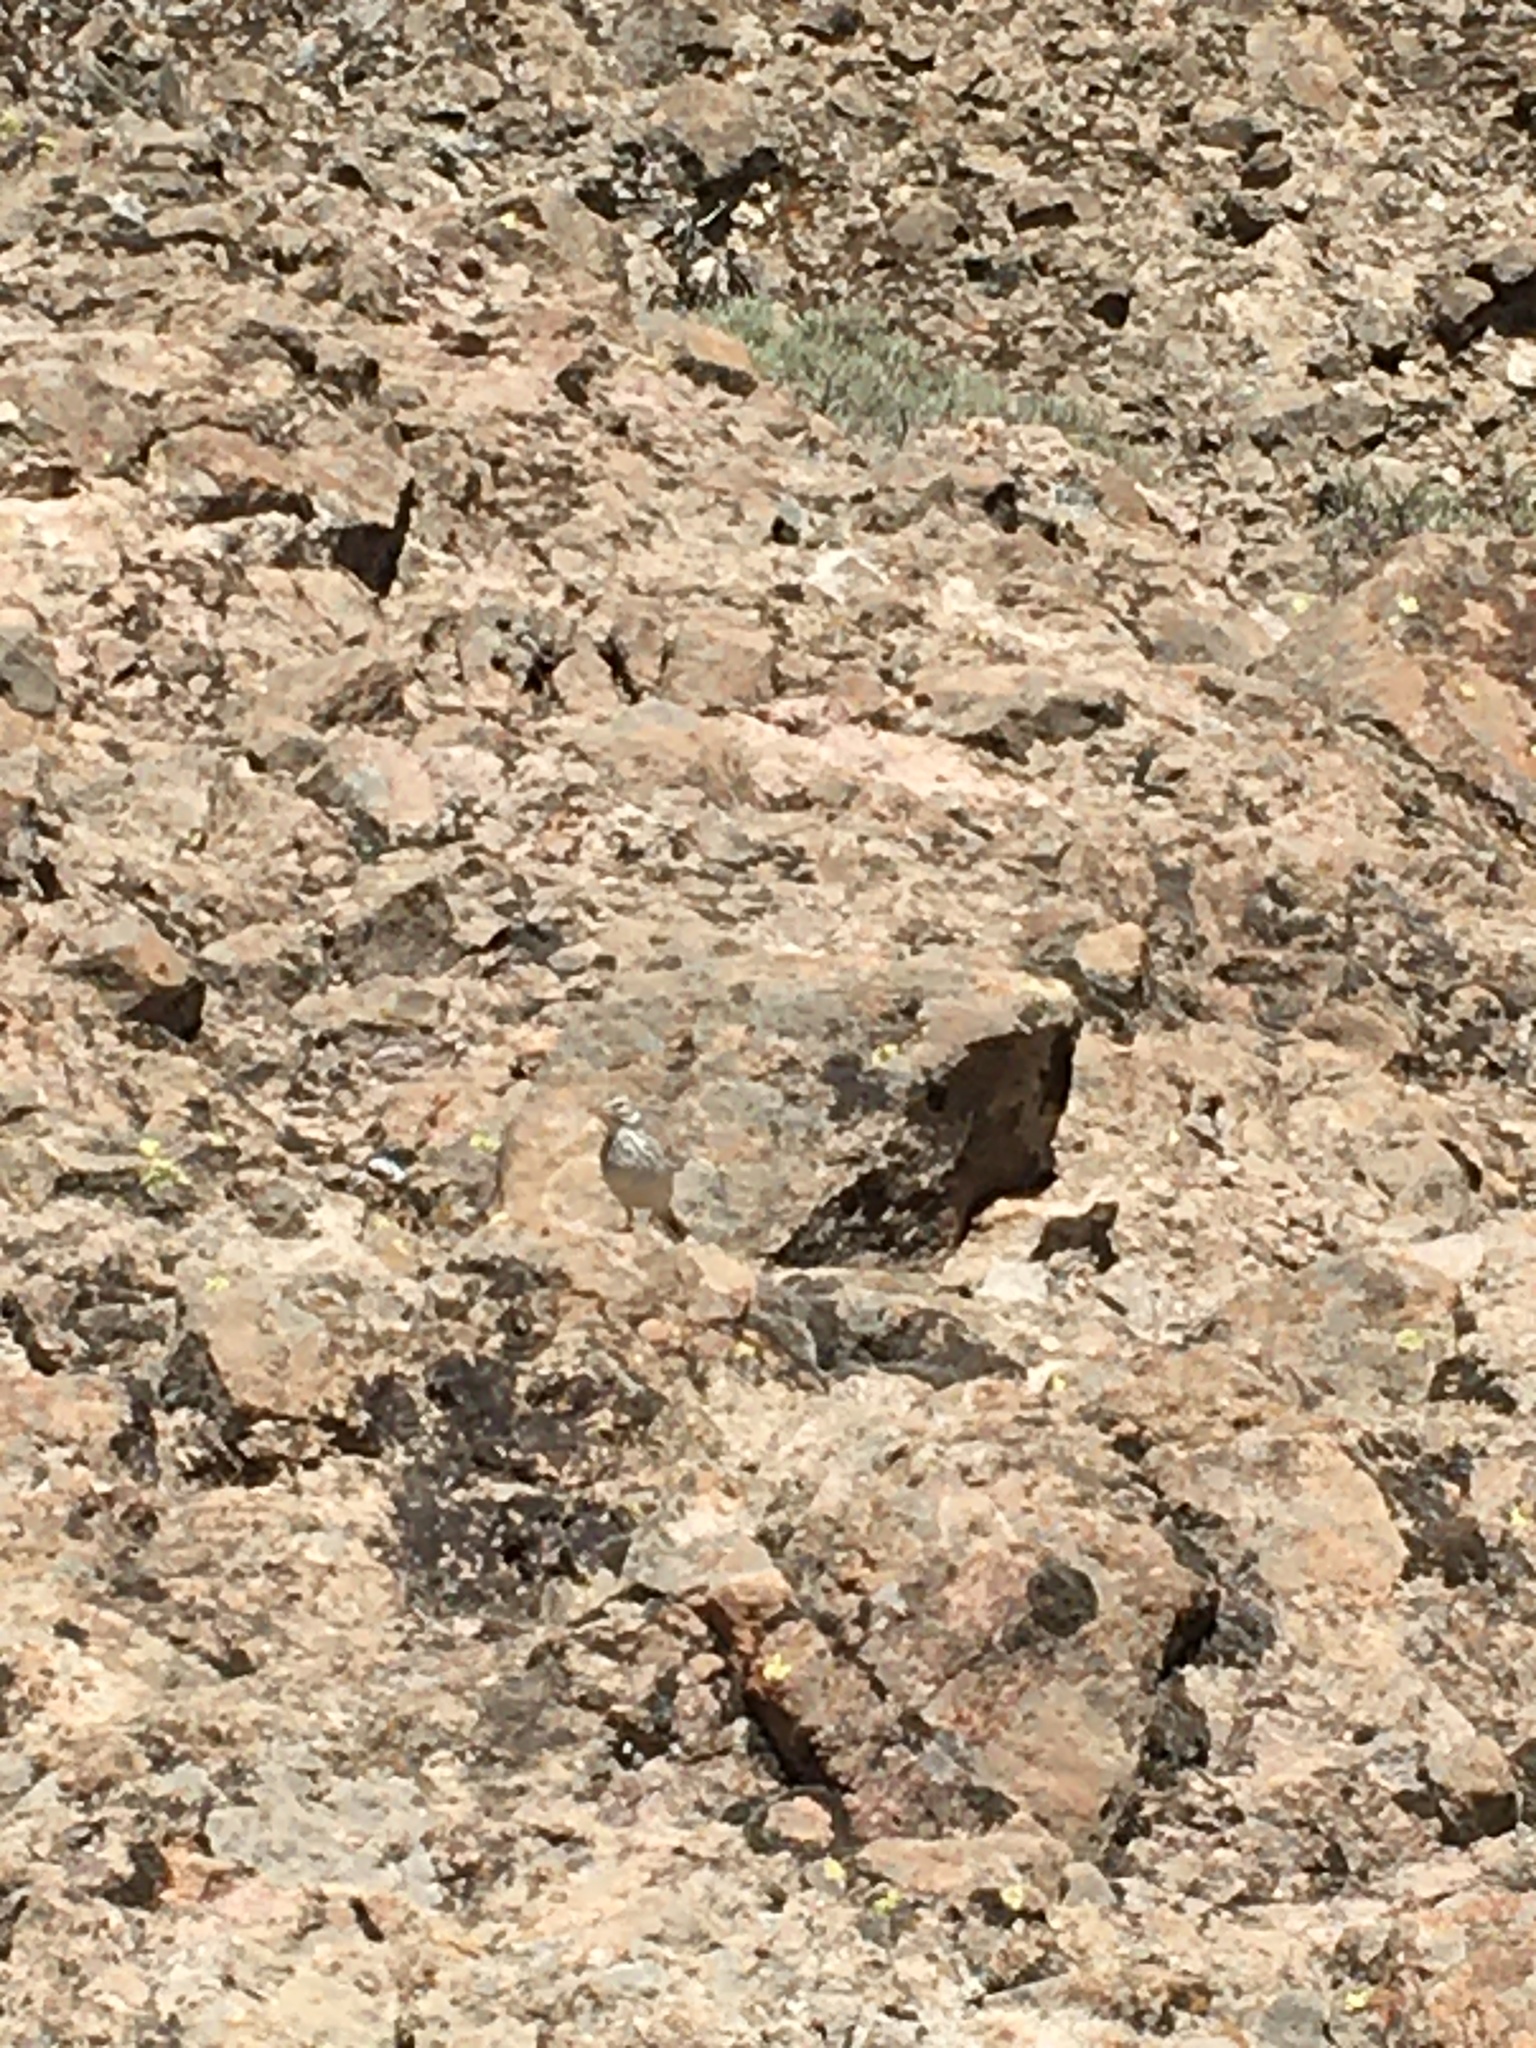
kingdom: Animalia
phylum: Chordata
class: Aves
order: Passeriformes
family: Motacillidae
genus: Anthus
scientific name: Anthus berthelotii
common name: Berthelot's pipit
